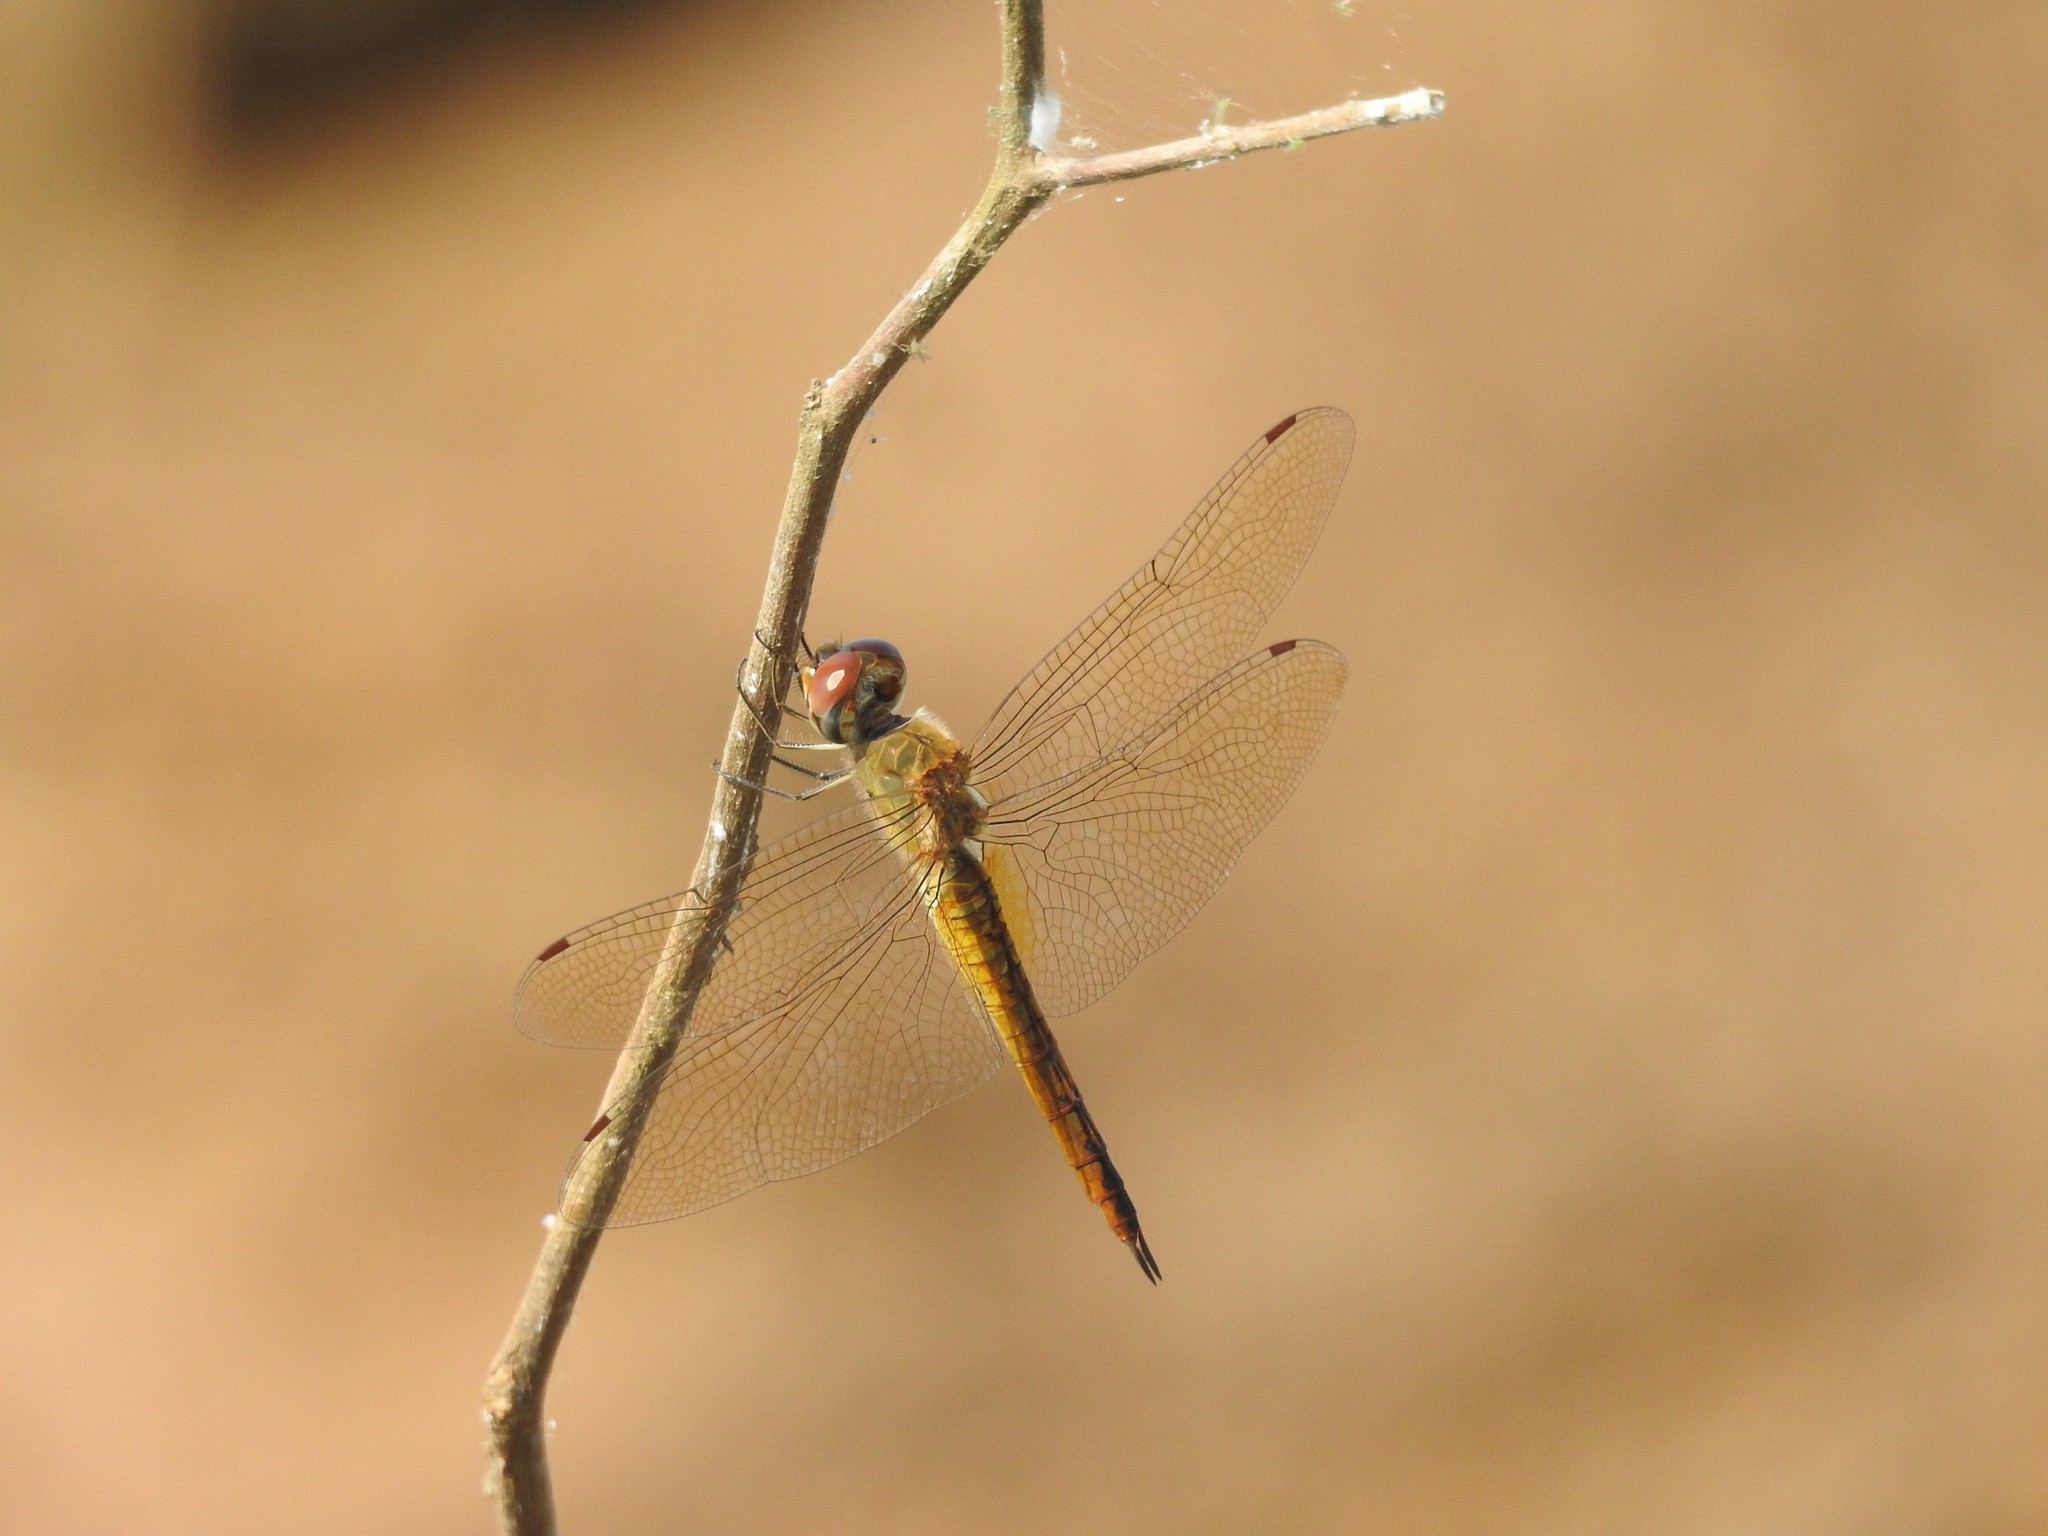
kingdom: Animalia
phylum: Arthropoda
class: Insecta
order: Odonata
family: Libellulidae
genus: Pantala
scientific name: Pantala flavescens
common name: Wandering glider
